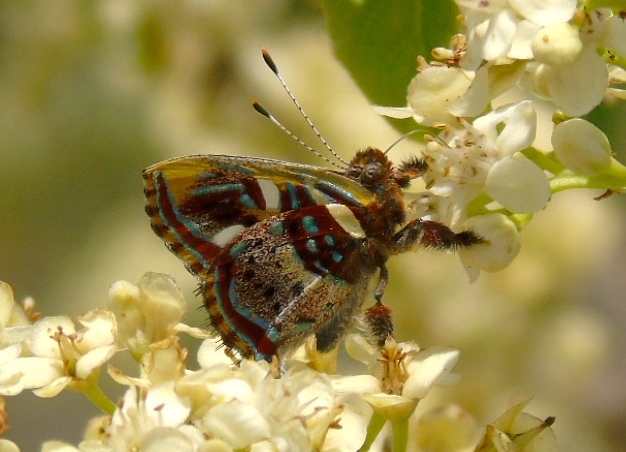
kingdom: Animalia
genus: Anteros
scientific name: Anteros carausius
